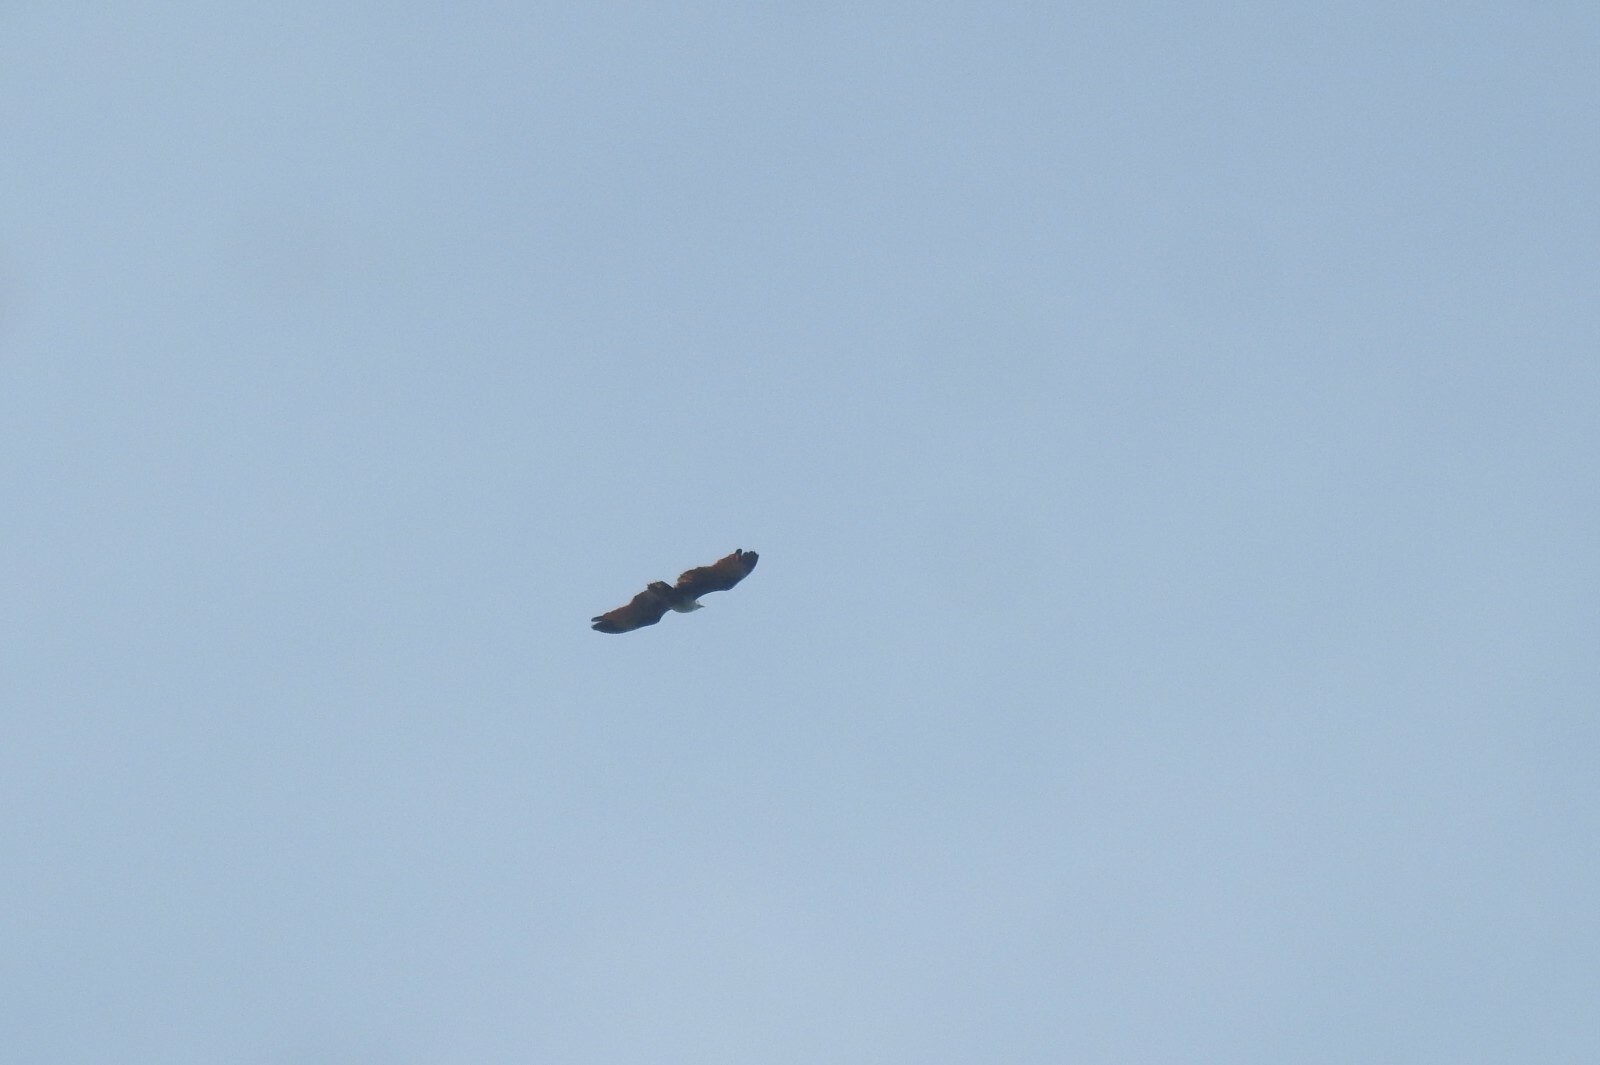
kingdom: Animalia
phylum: Chordata
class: Aves
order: Accipitriformes
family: Accipitridae
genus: Haliastur
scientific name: Haliastur indus
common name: Brahminy kite
